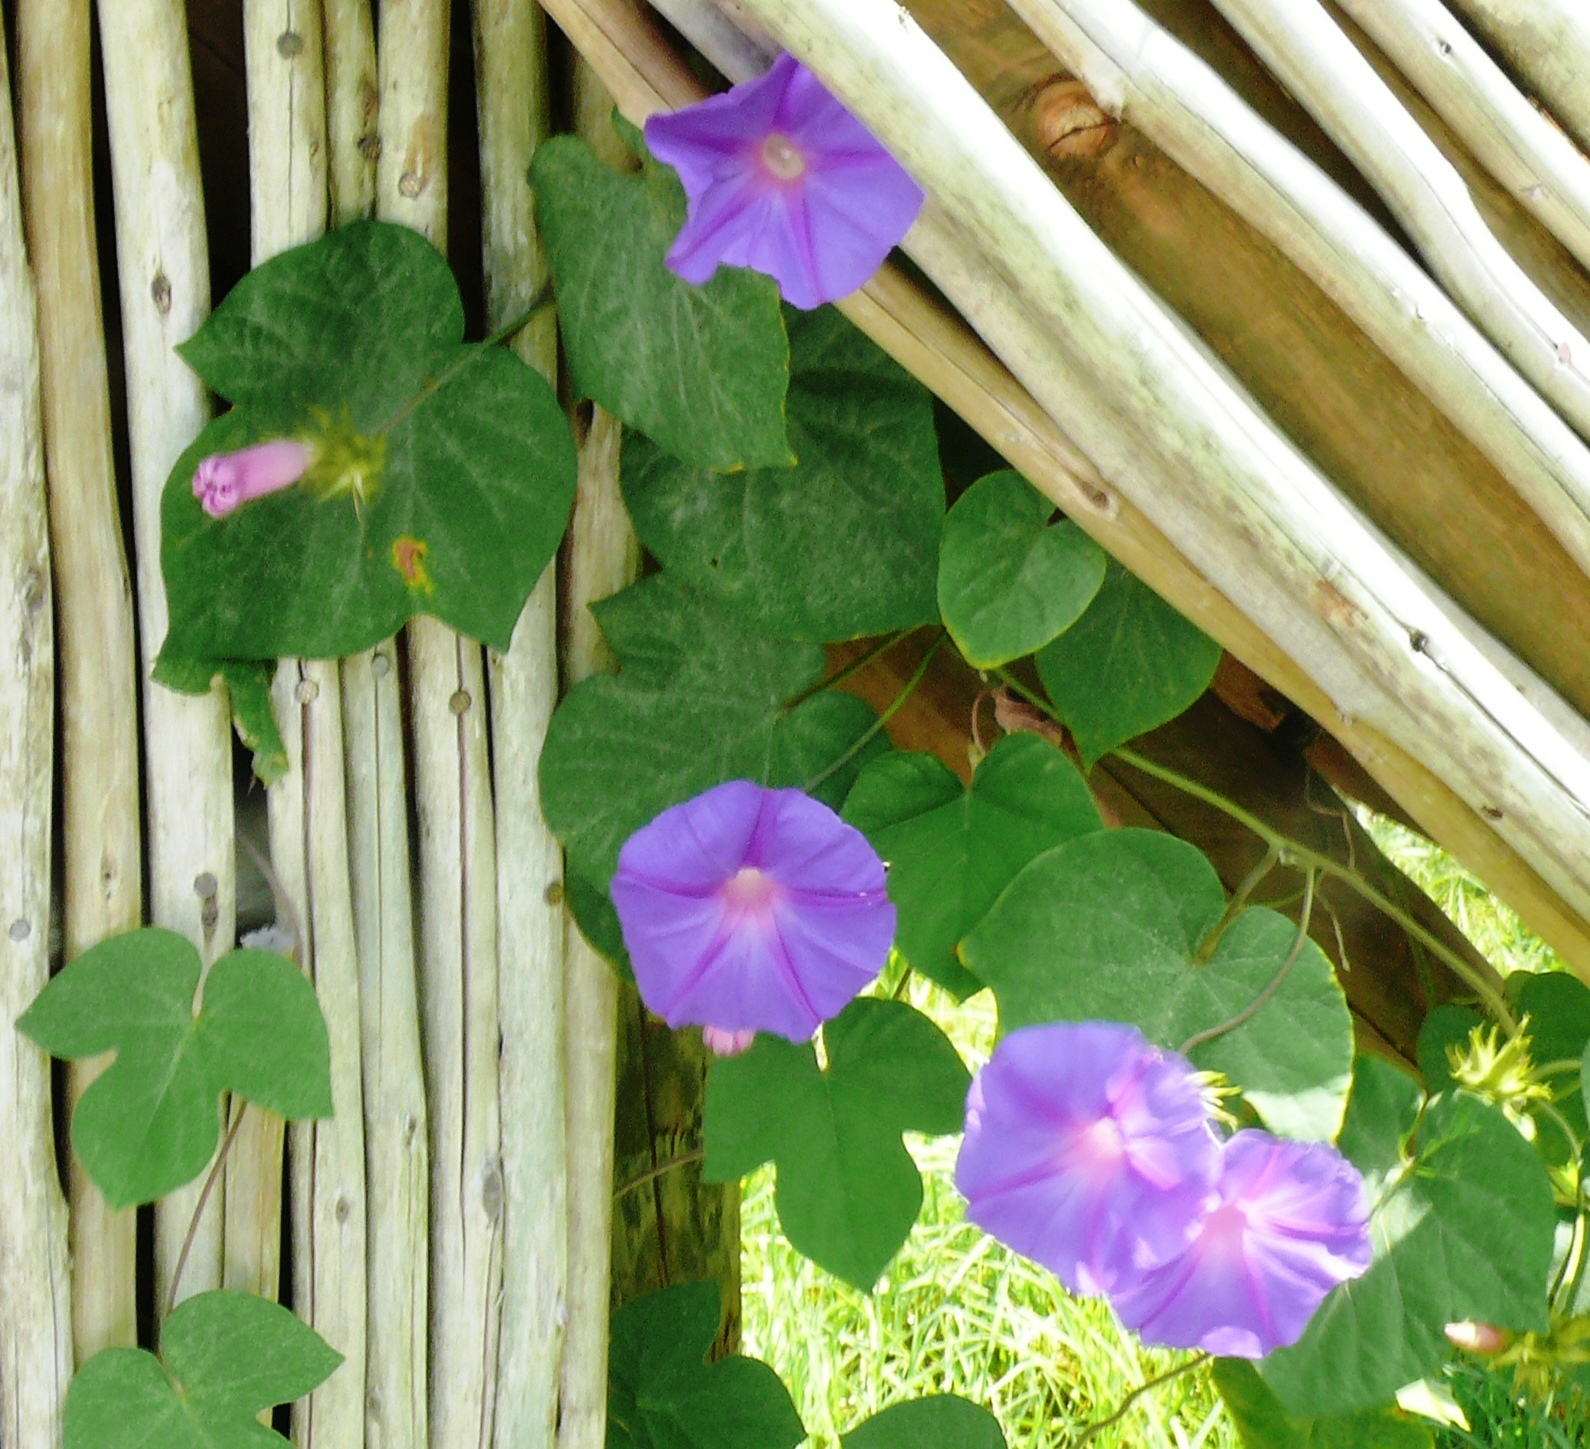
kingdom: Plantae
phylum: Tracheophyta
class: Magnoliopsida
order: Solanales
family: Convolvulaceae
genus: Ipomoea
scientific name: Ipomoea indica
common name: Blue dawnflower
